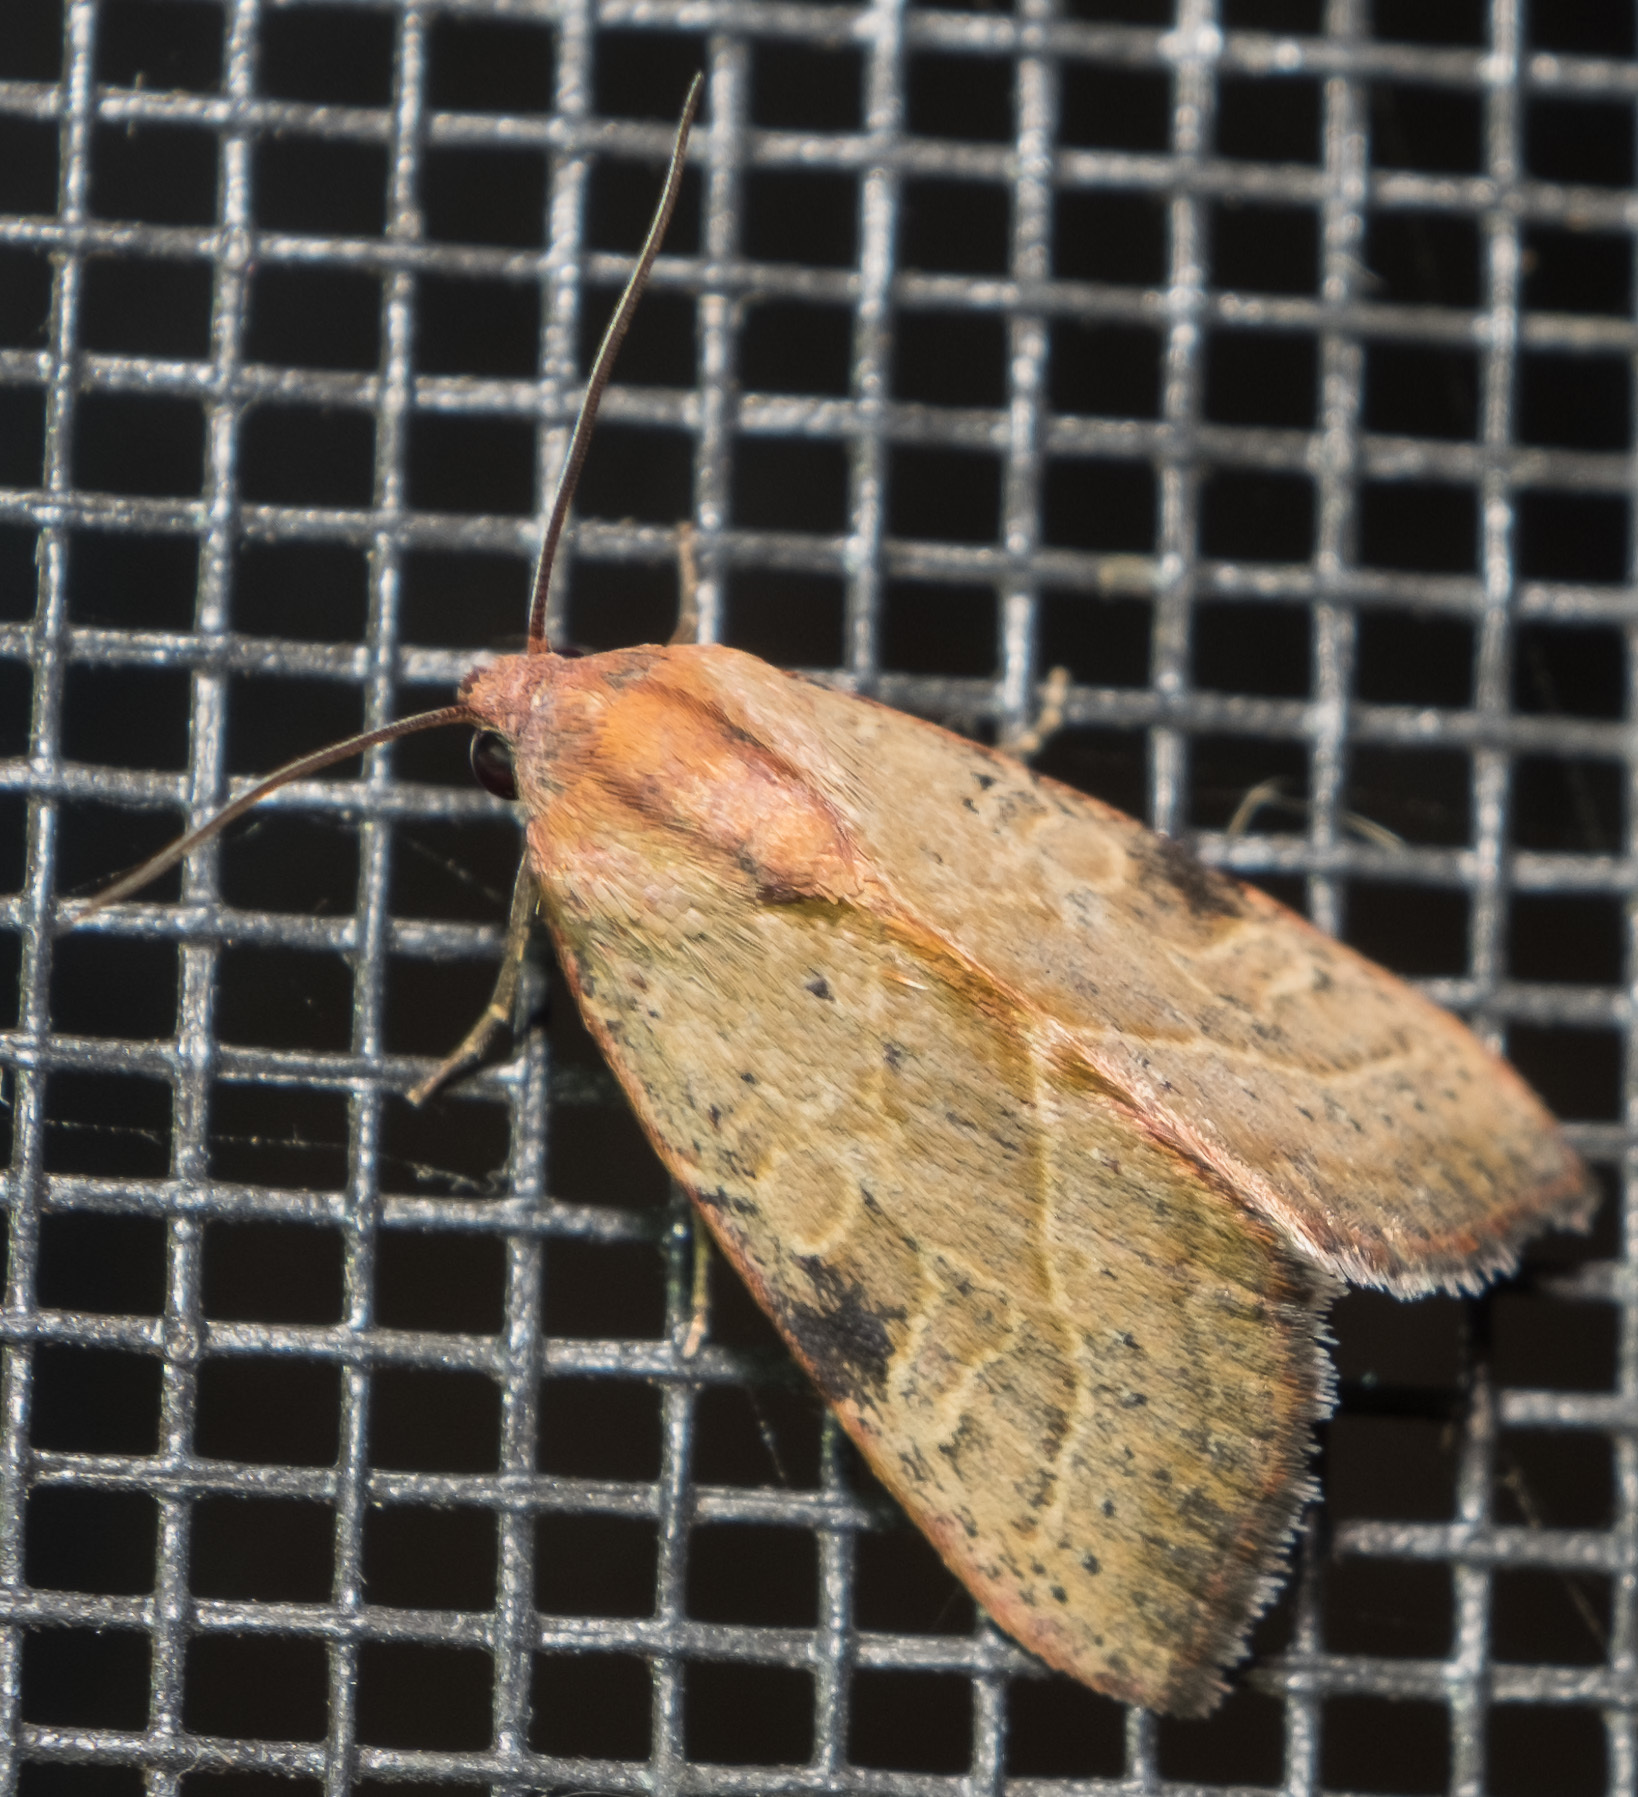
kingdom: Animalia
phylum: Arthropoda
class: Insecta
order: Lepidoptera
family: Noctuidae
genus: Galgula
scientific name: Galgula partita
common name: Wedgeling
